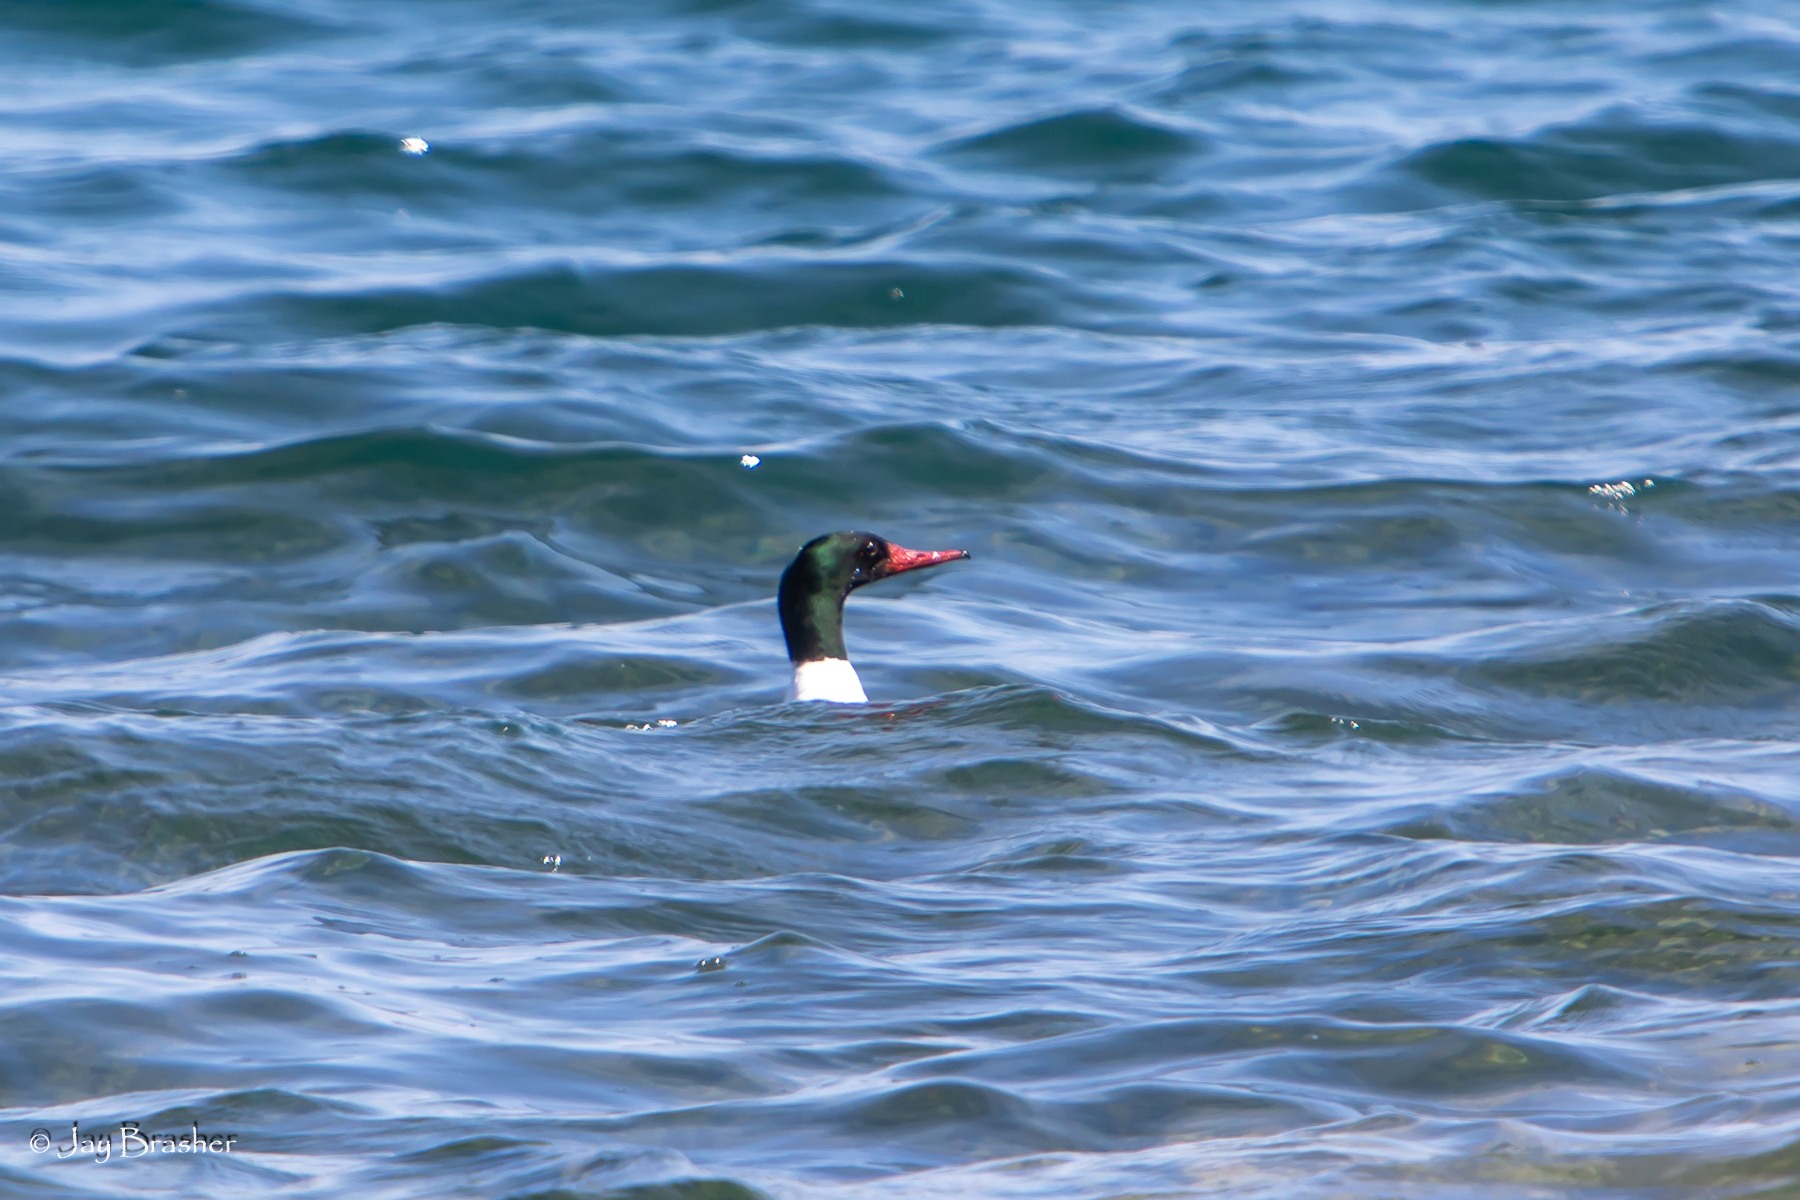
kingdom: Animalia
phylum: Chordata
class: Aves
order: Anseriformes
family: Anatidae
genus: Mergus
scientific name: Mergus merganser
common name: Common merganser
